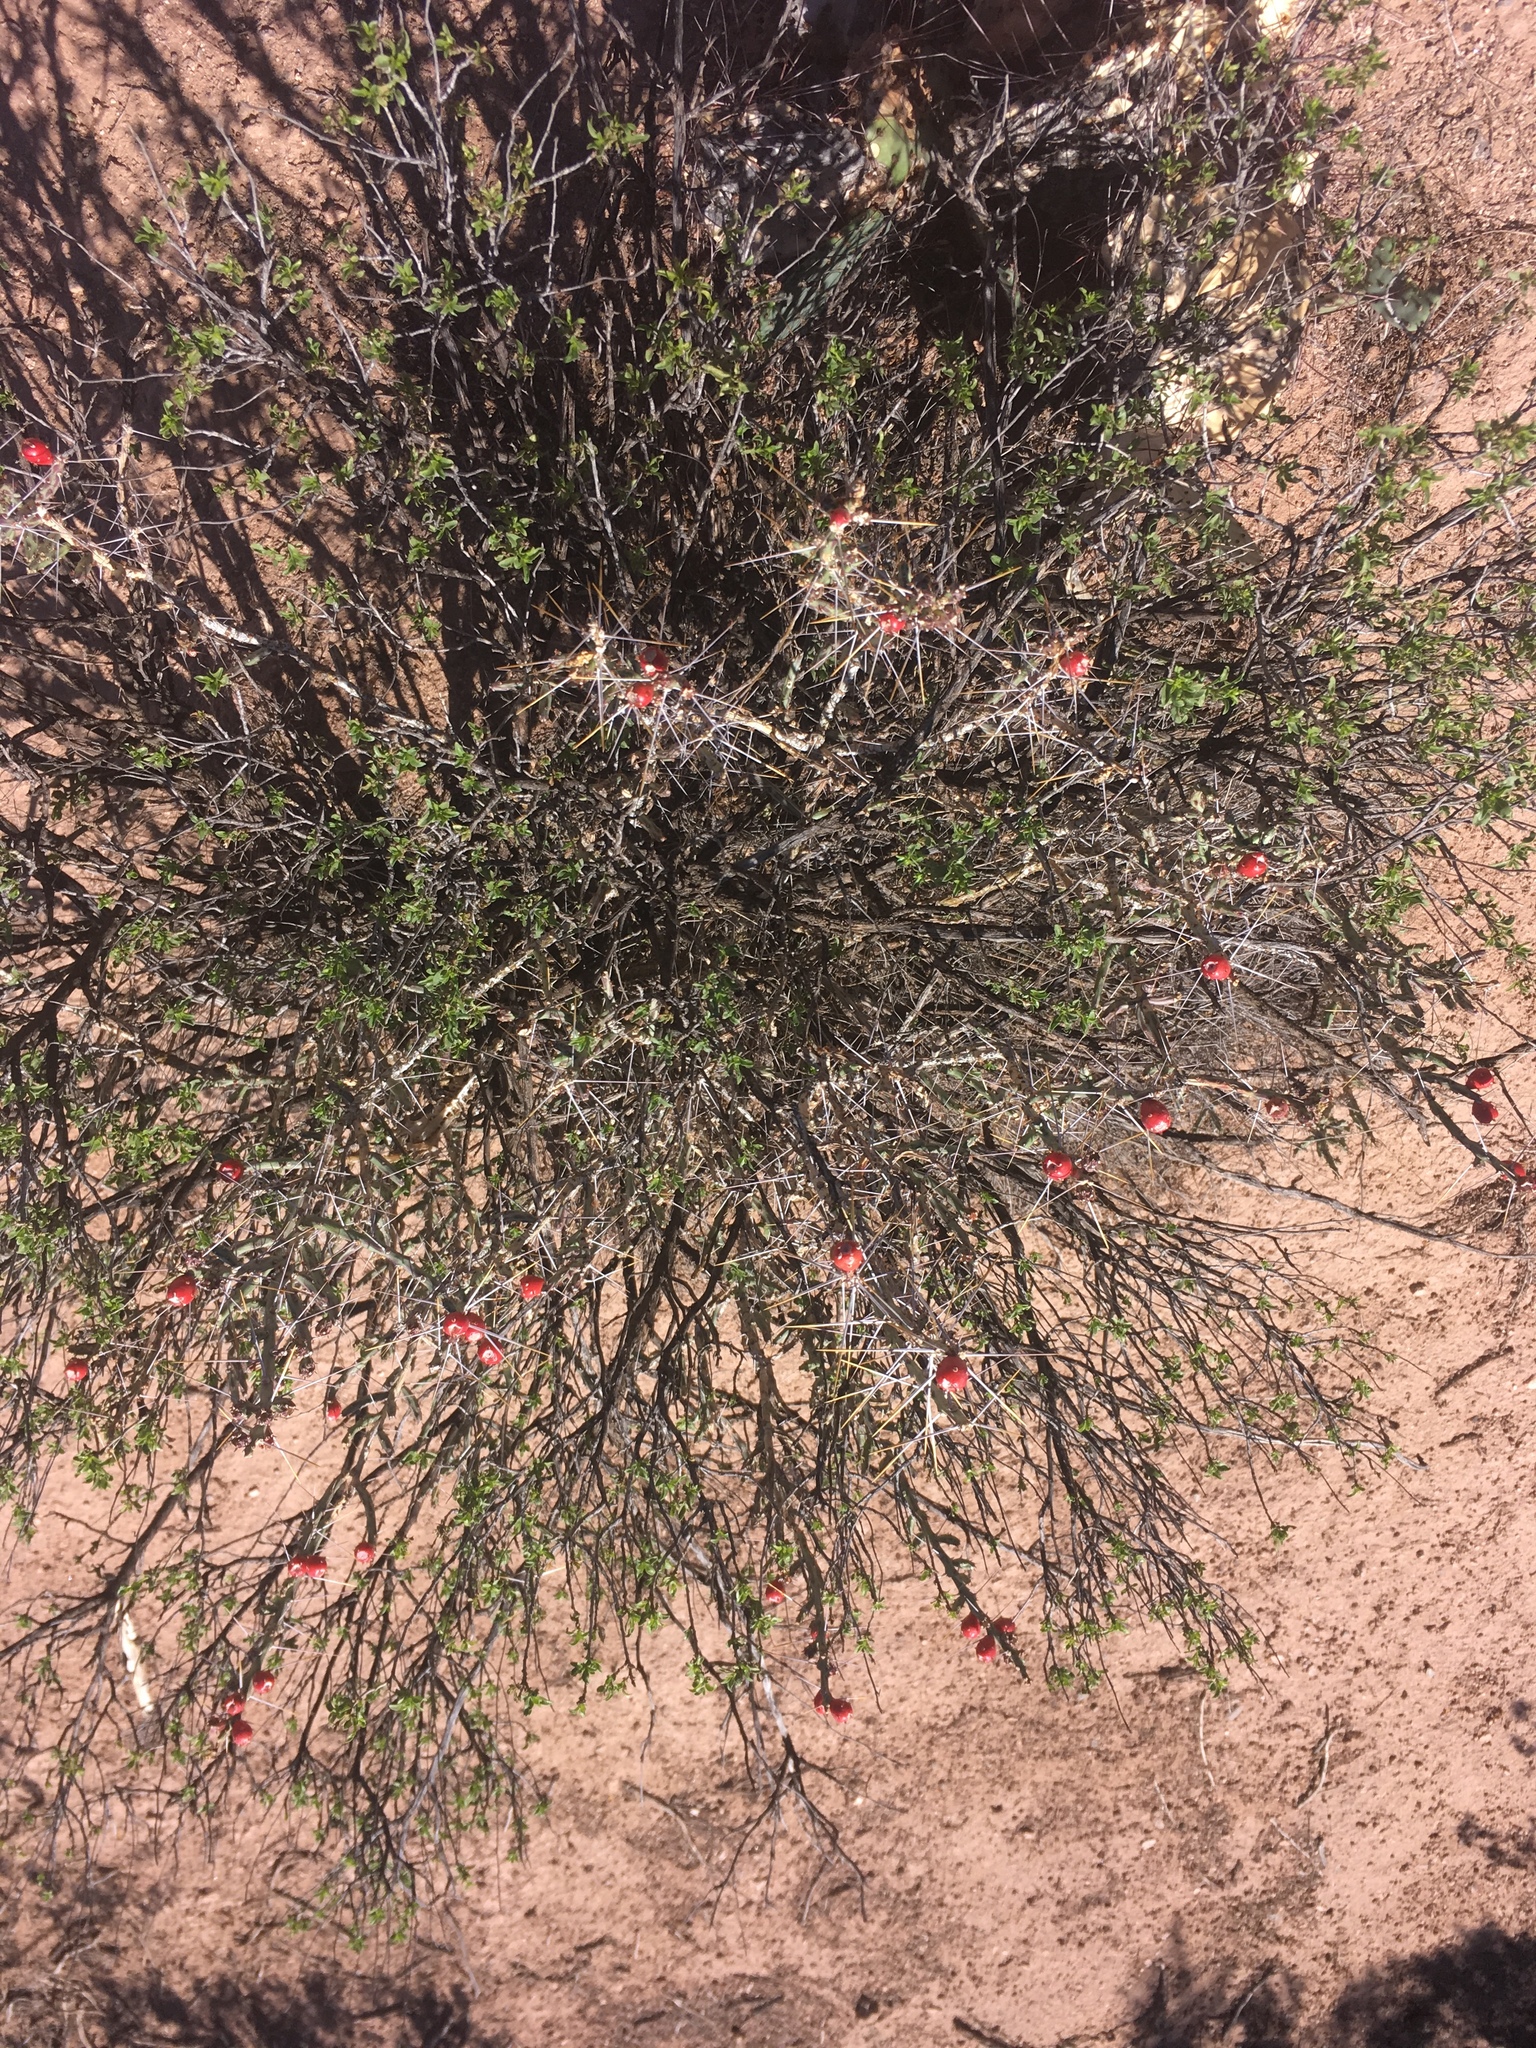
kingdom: Plantae
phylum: Tracheophyta
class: Magnoliopsida
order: Caryophyllales
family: Cactaceae
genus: Cylindropuntia
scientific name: Cylindropuntia leptocaulis
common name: Christmas cactus
